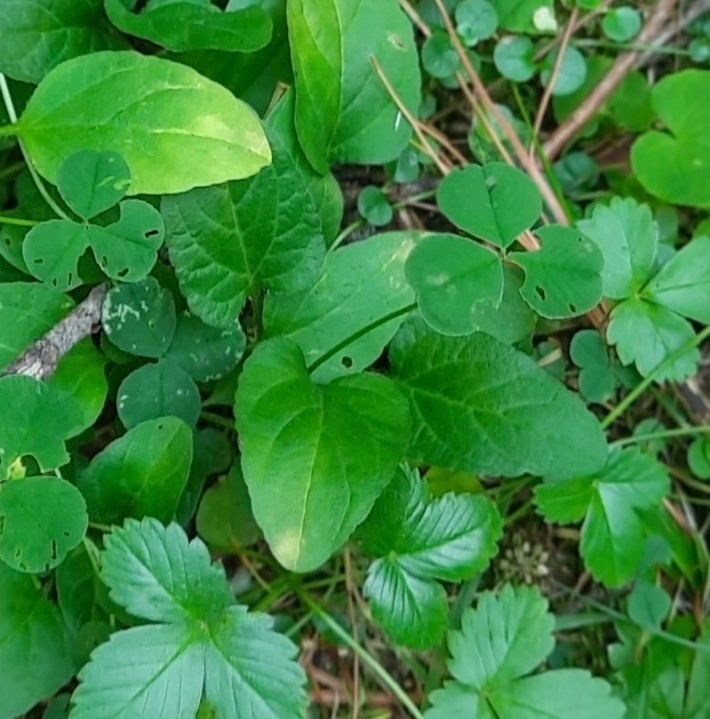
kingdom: Plantae
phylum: Tracheophyta
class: Magnoliopsida
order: Lamiales
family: Lamiaceae
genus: Prunella
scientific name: Prunella vulgaris
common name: Heal-all
